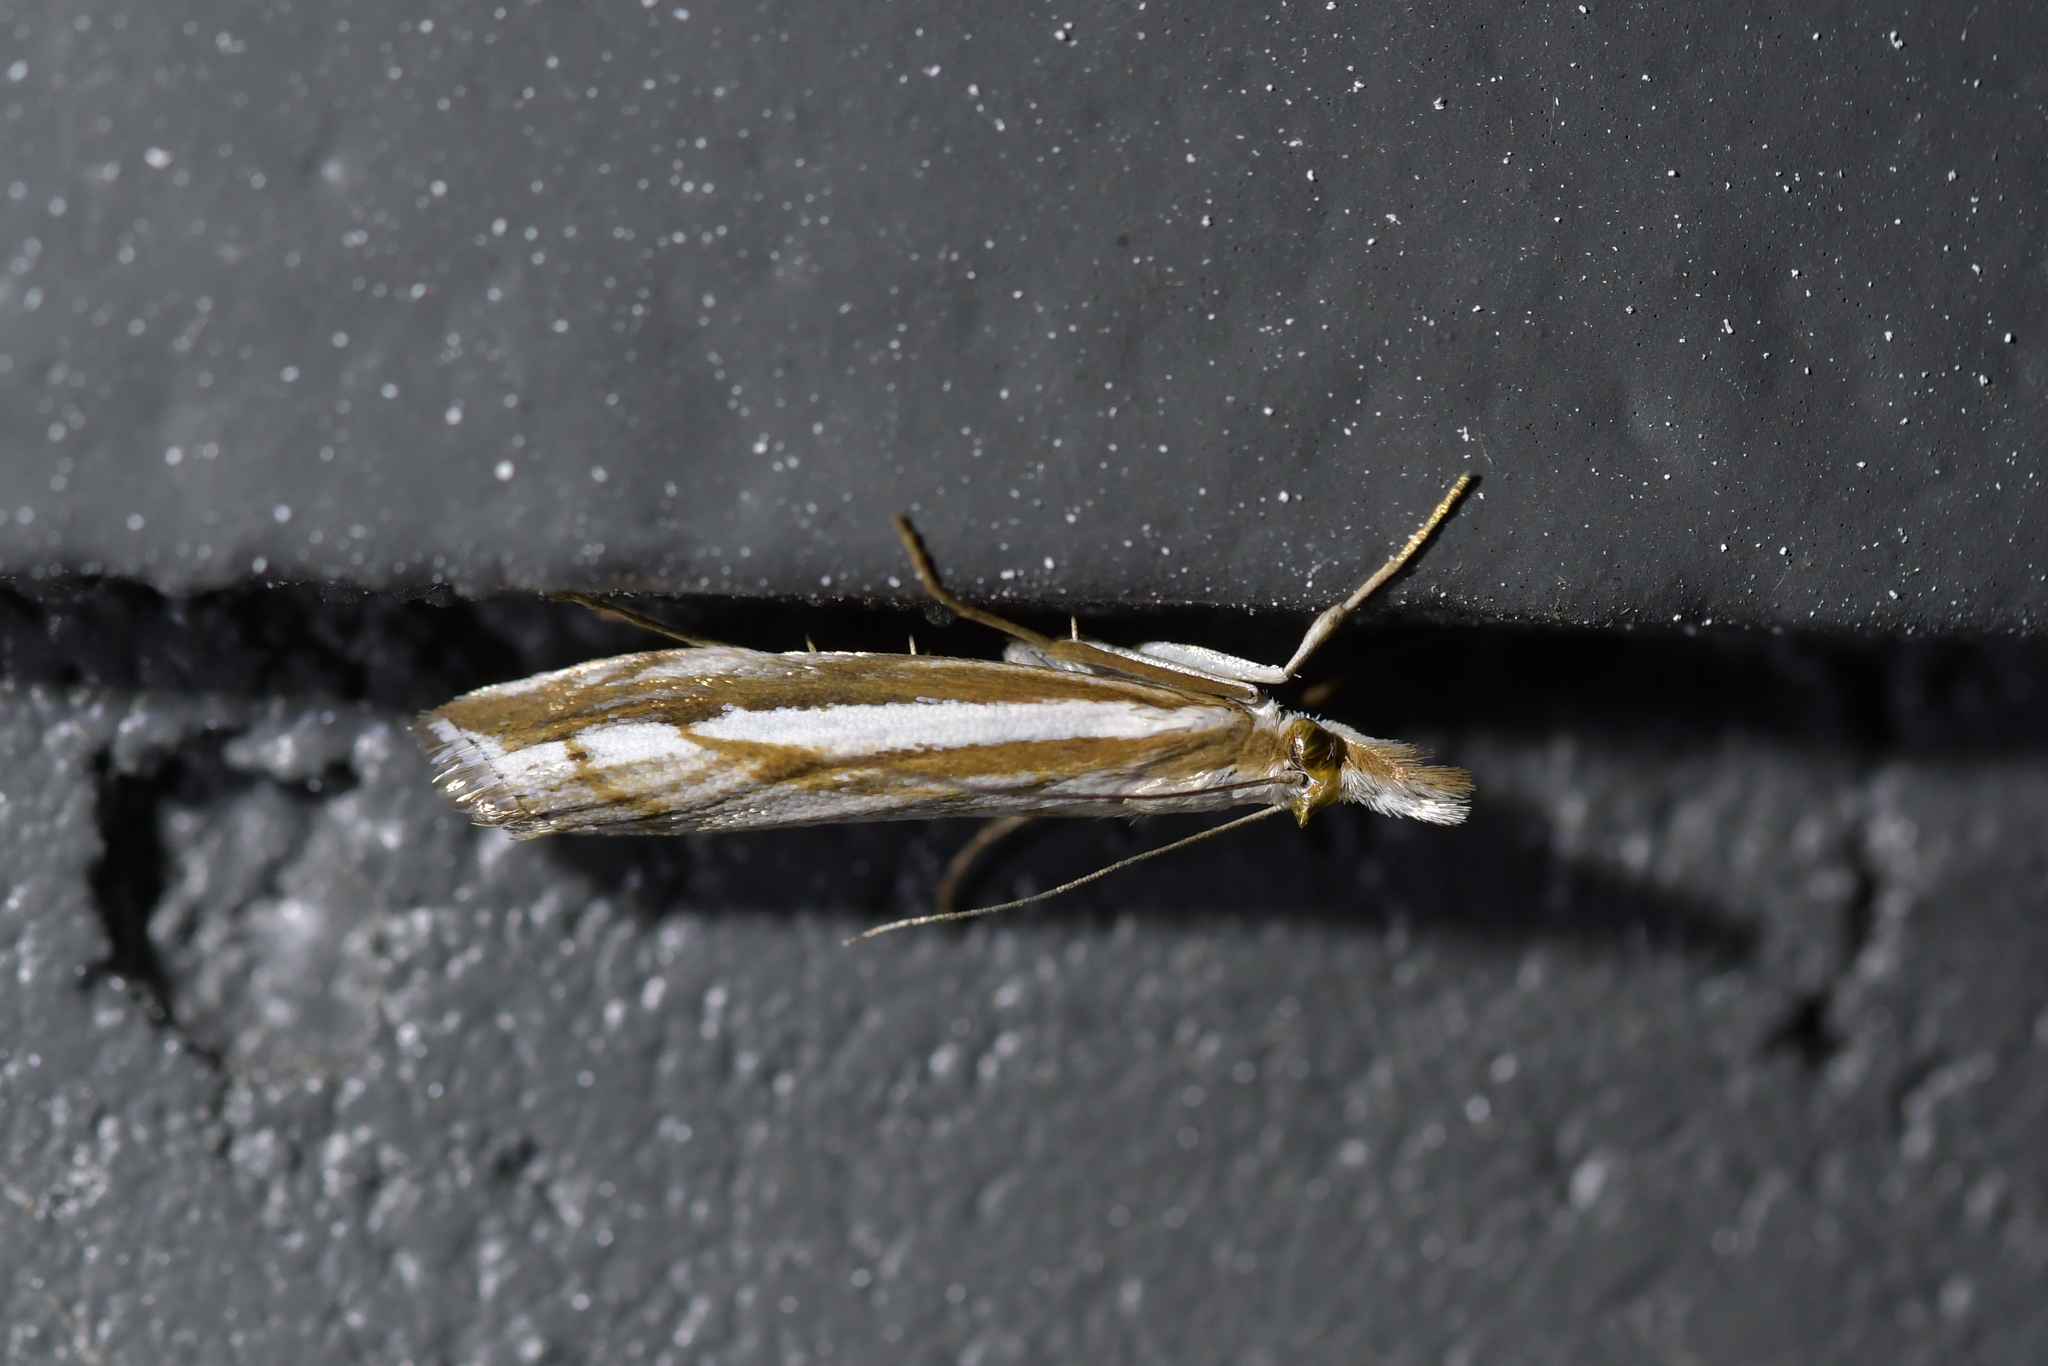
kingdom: Animalia
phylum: Arthropoda
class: Insecta
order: Lepidoptera
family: Crambidae
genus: Orocrambus
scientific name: Orocrambus vittellus
